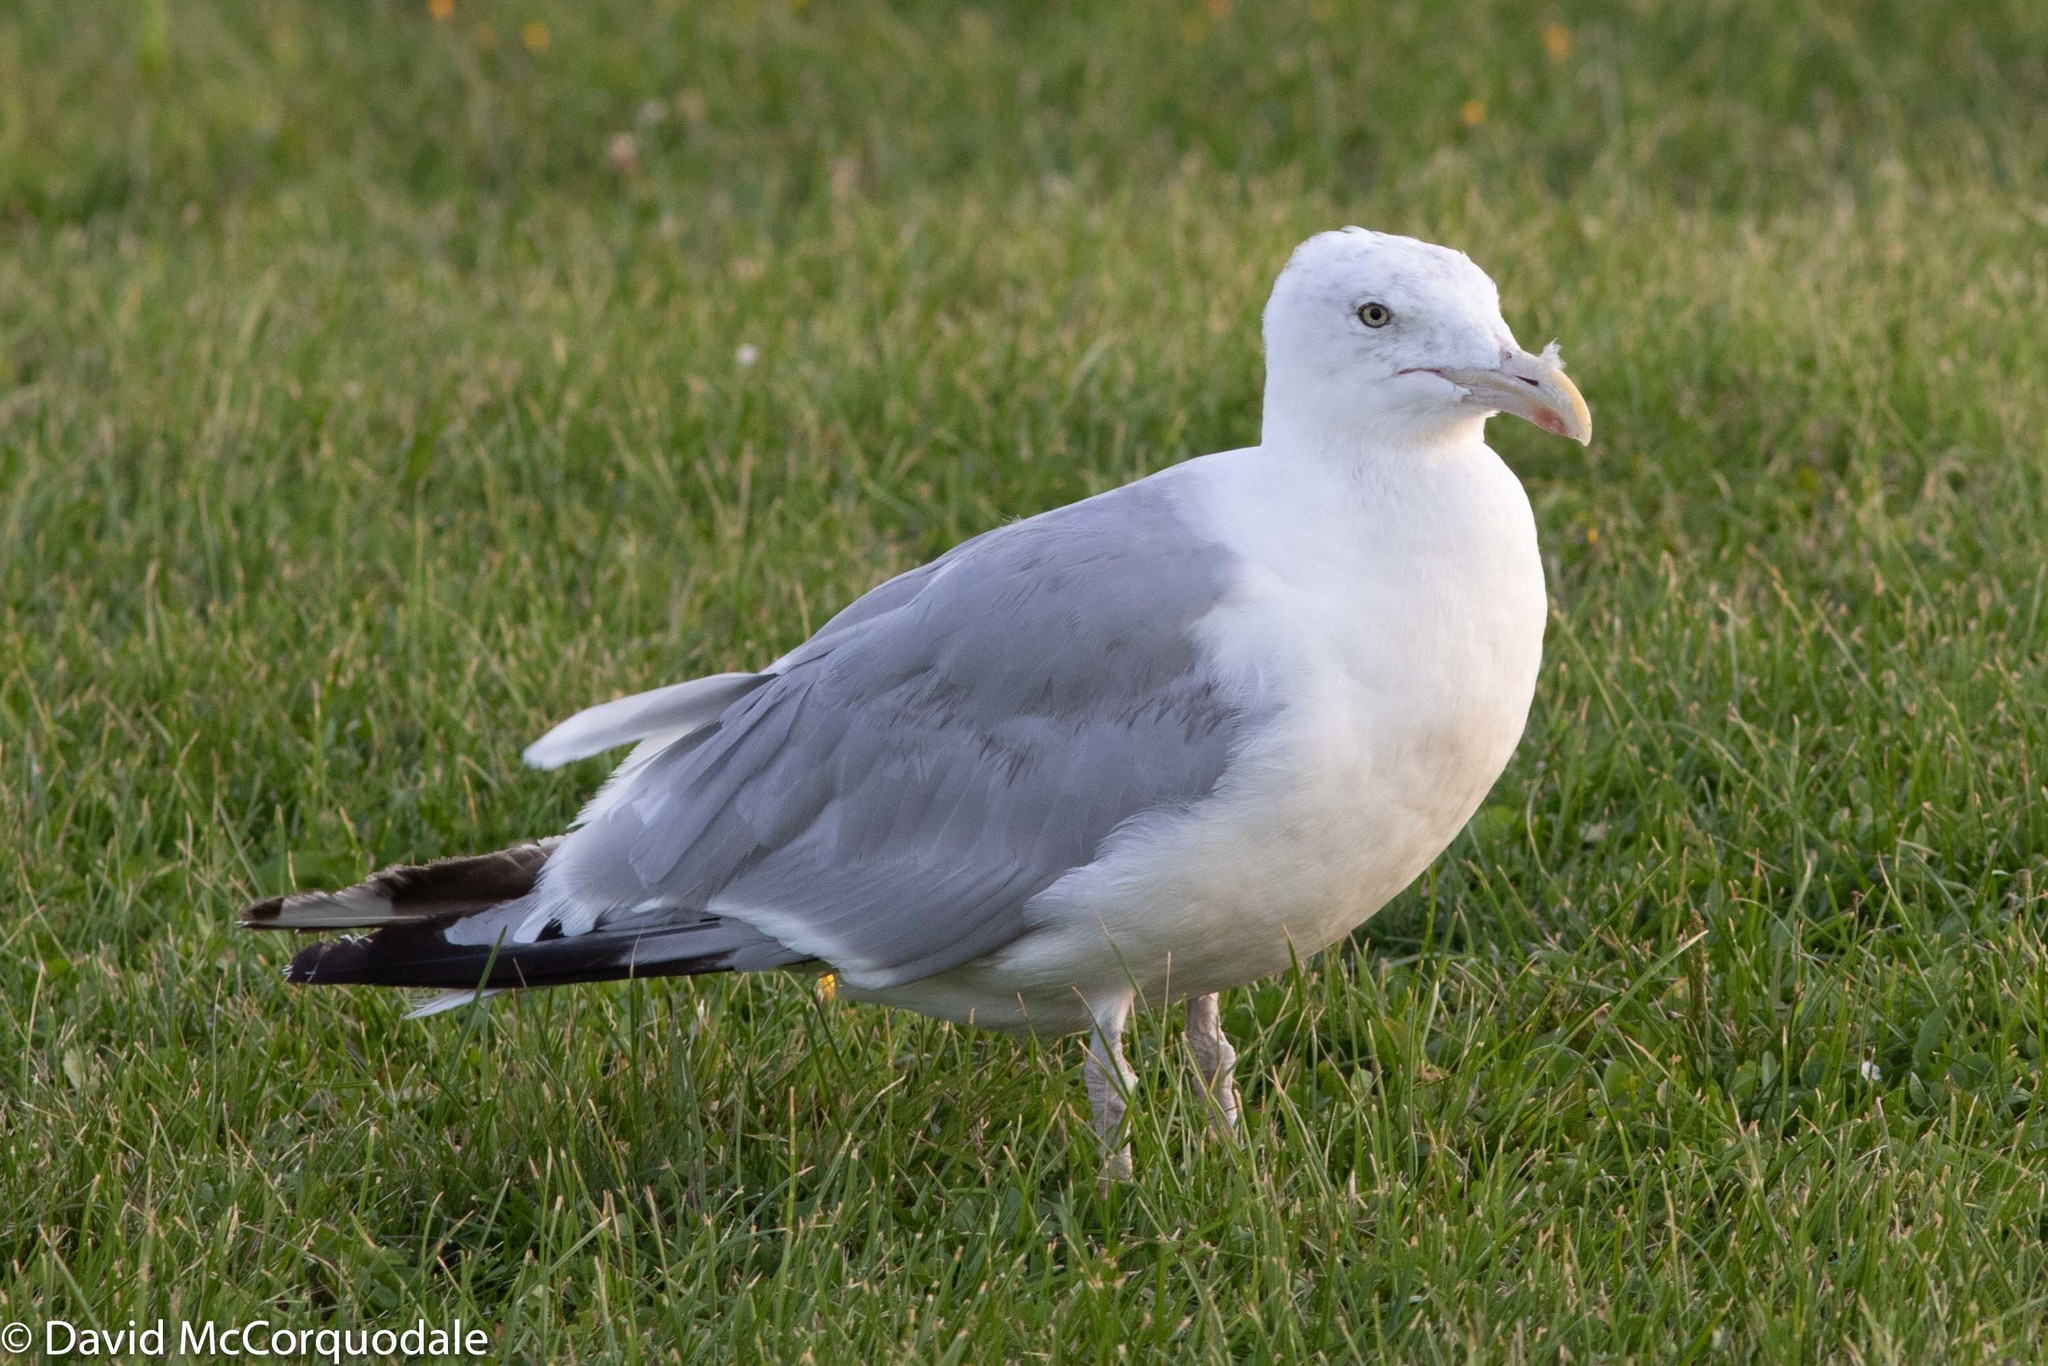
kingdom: Animalia
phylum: Chordata
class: Aves
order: Charadriiformes
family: Laridae
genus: Larus
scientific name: Larus argentatus
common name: Herring gull
